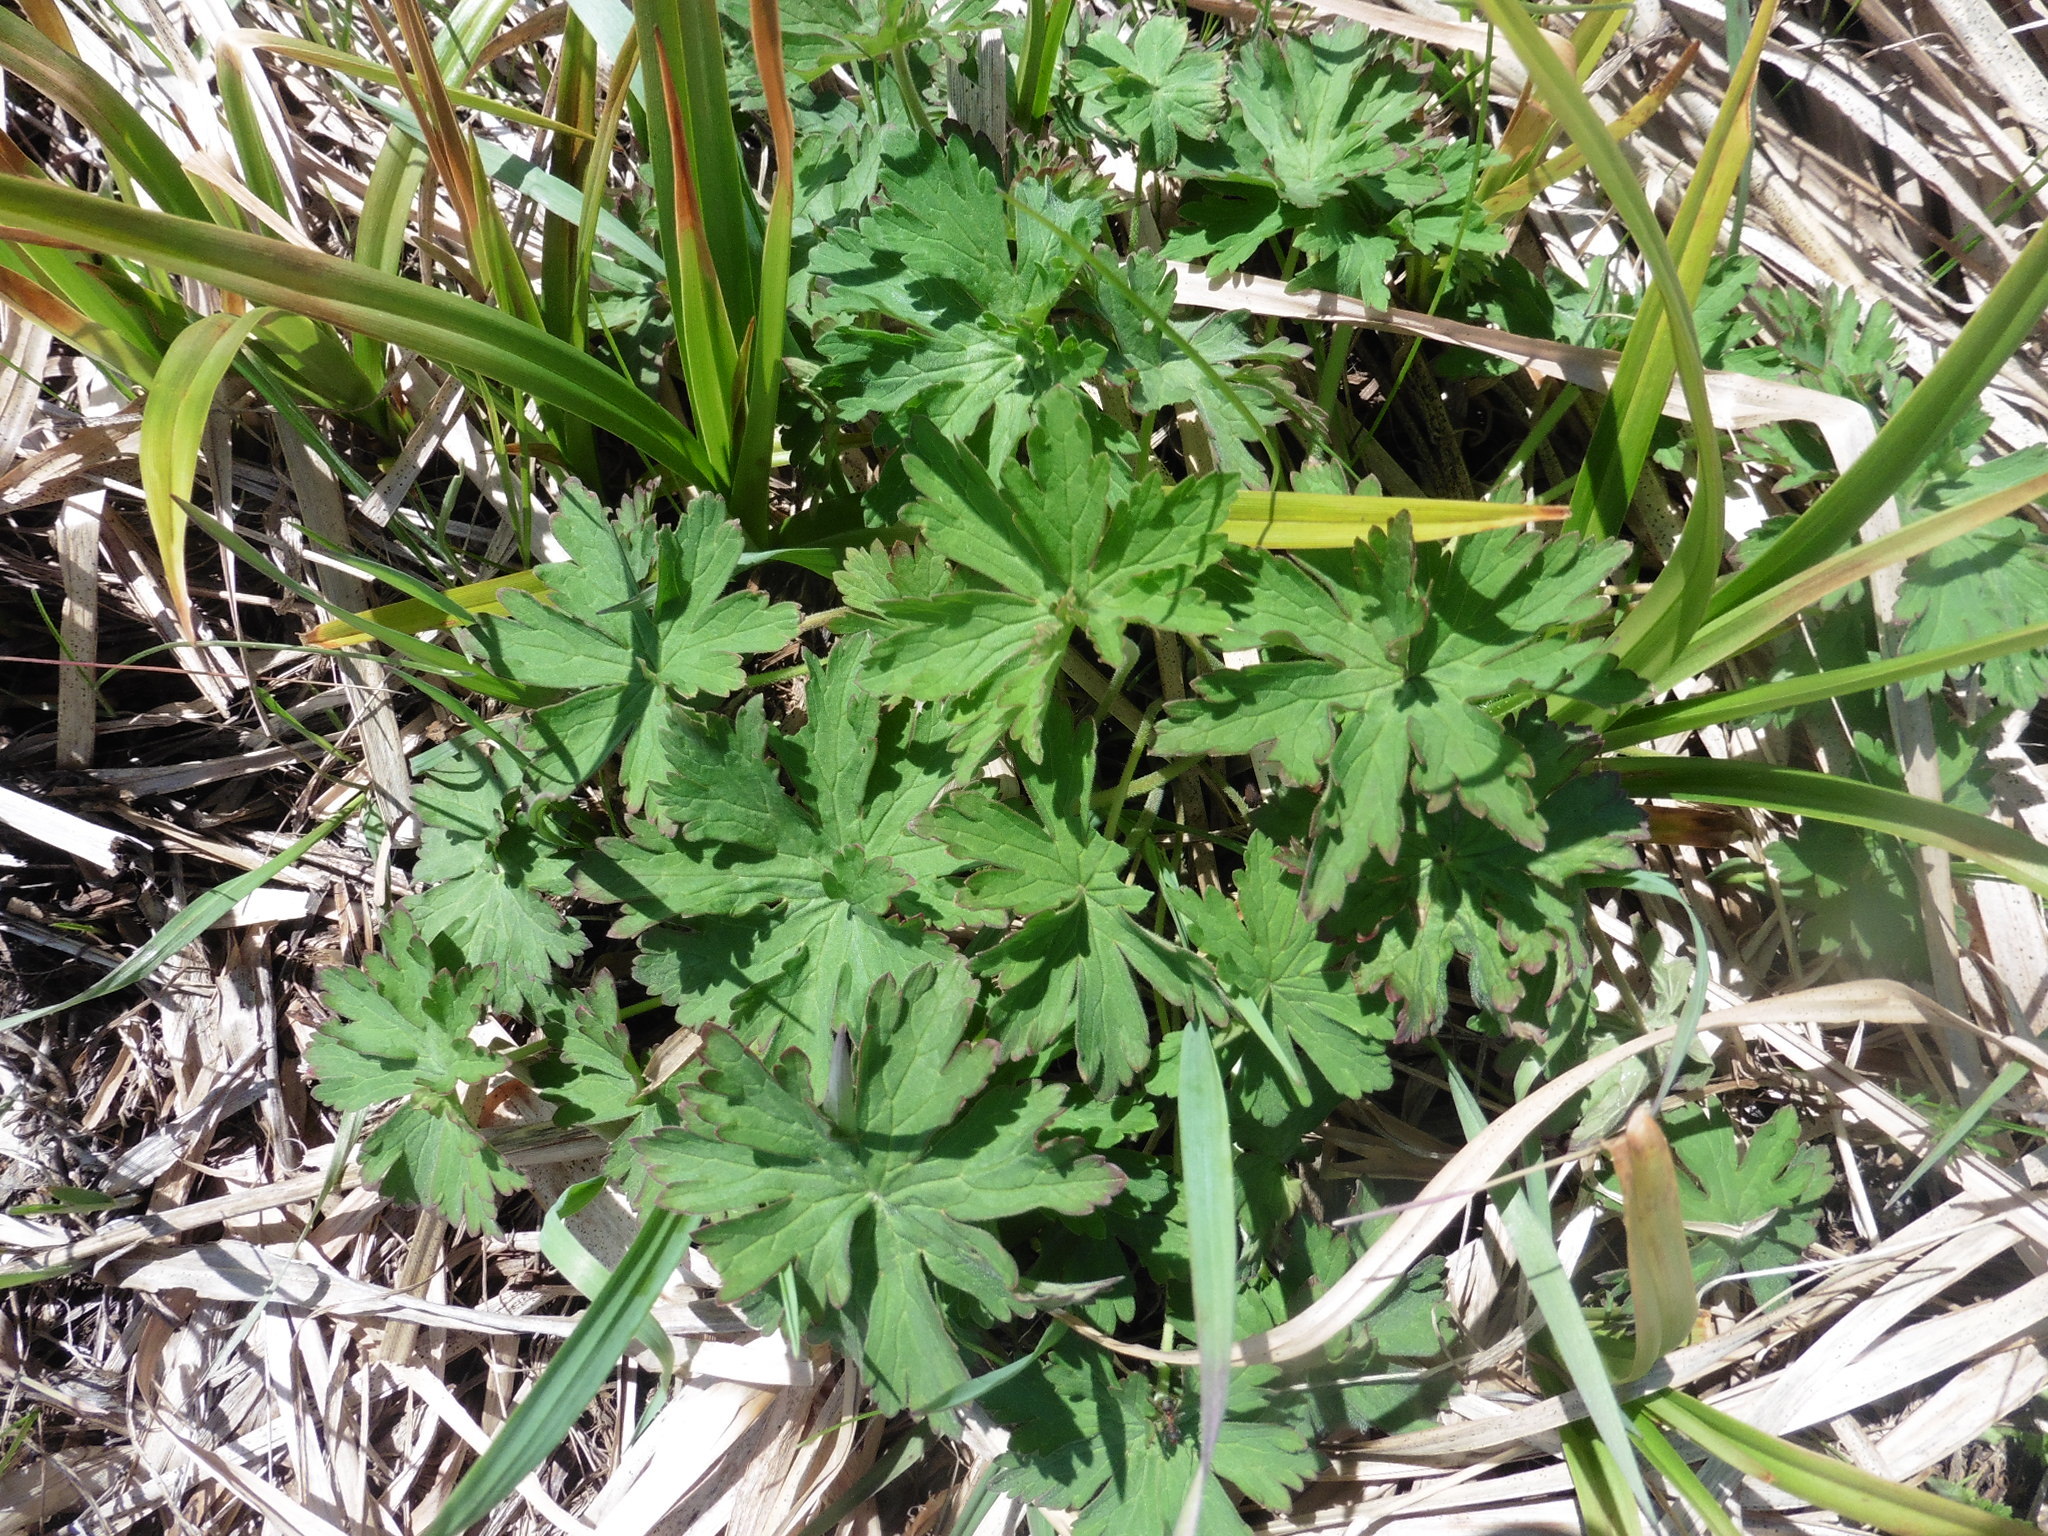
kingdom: Plantae
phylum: Tracheophyta
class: Magnoliopsida
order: Geraniales
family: Geraniaceae
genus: Geranium
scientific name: Geranium pratense
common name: Meadow crane's-bill
